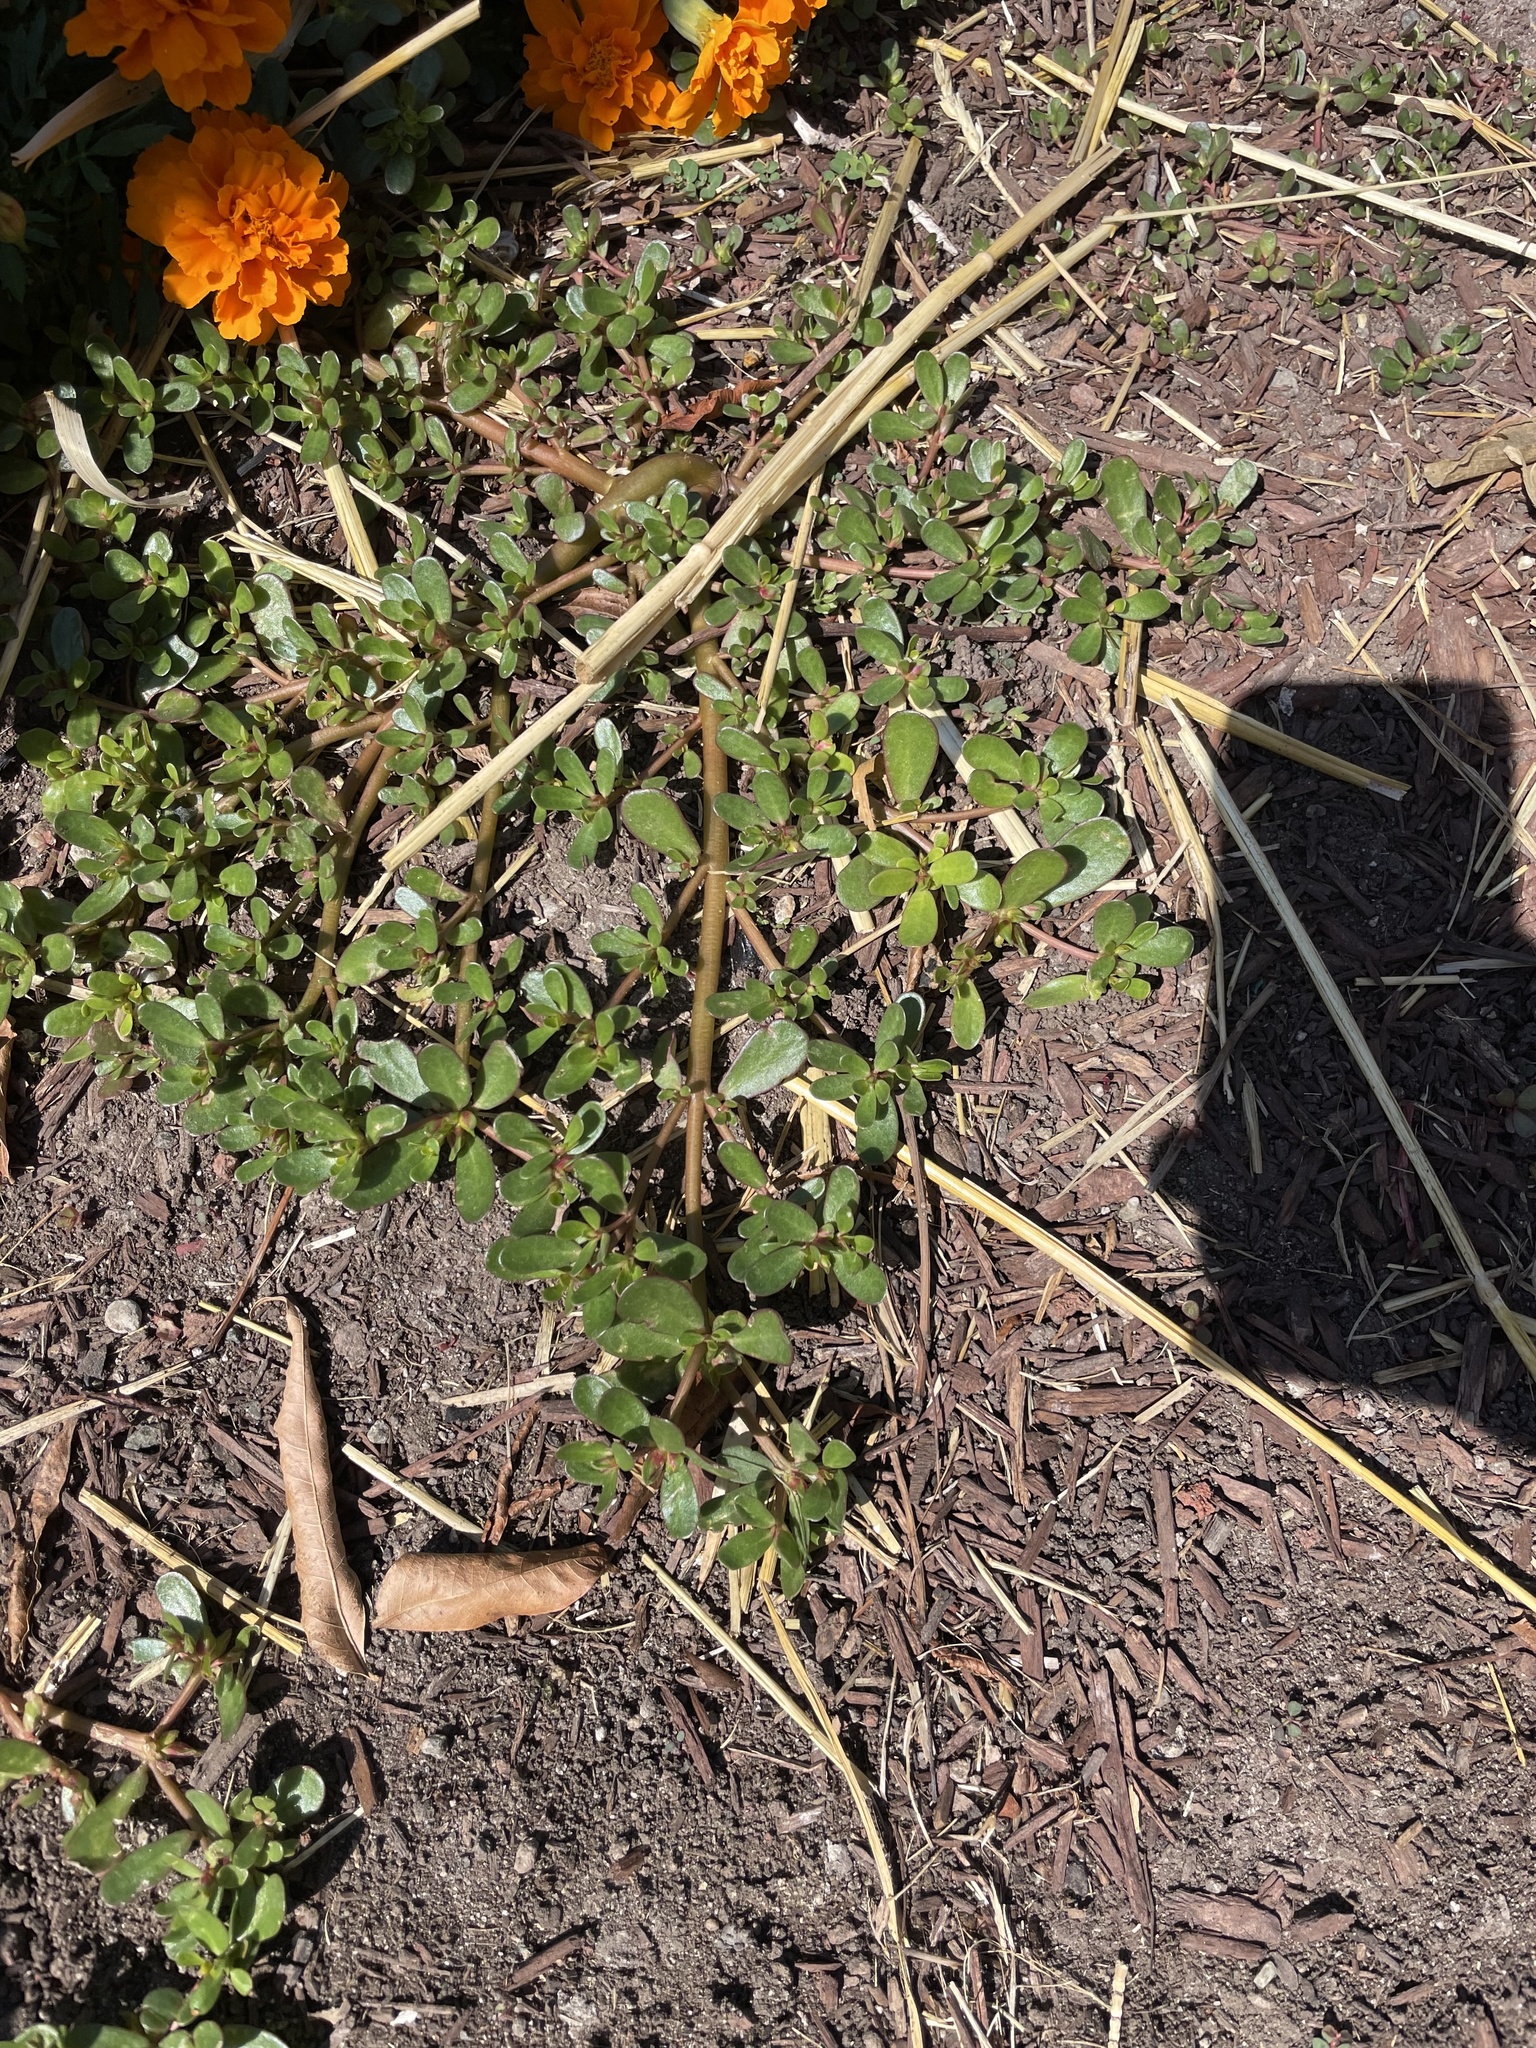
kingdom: Plantae
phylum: Tracheophyta
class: Magnoliopsida
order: Caryophyllales
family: Portulacaceae
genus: Portulaca
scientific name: Portulaca oleracea
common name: Common purslane
